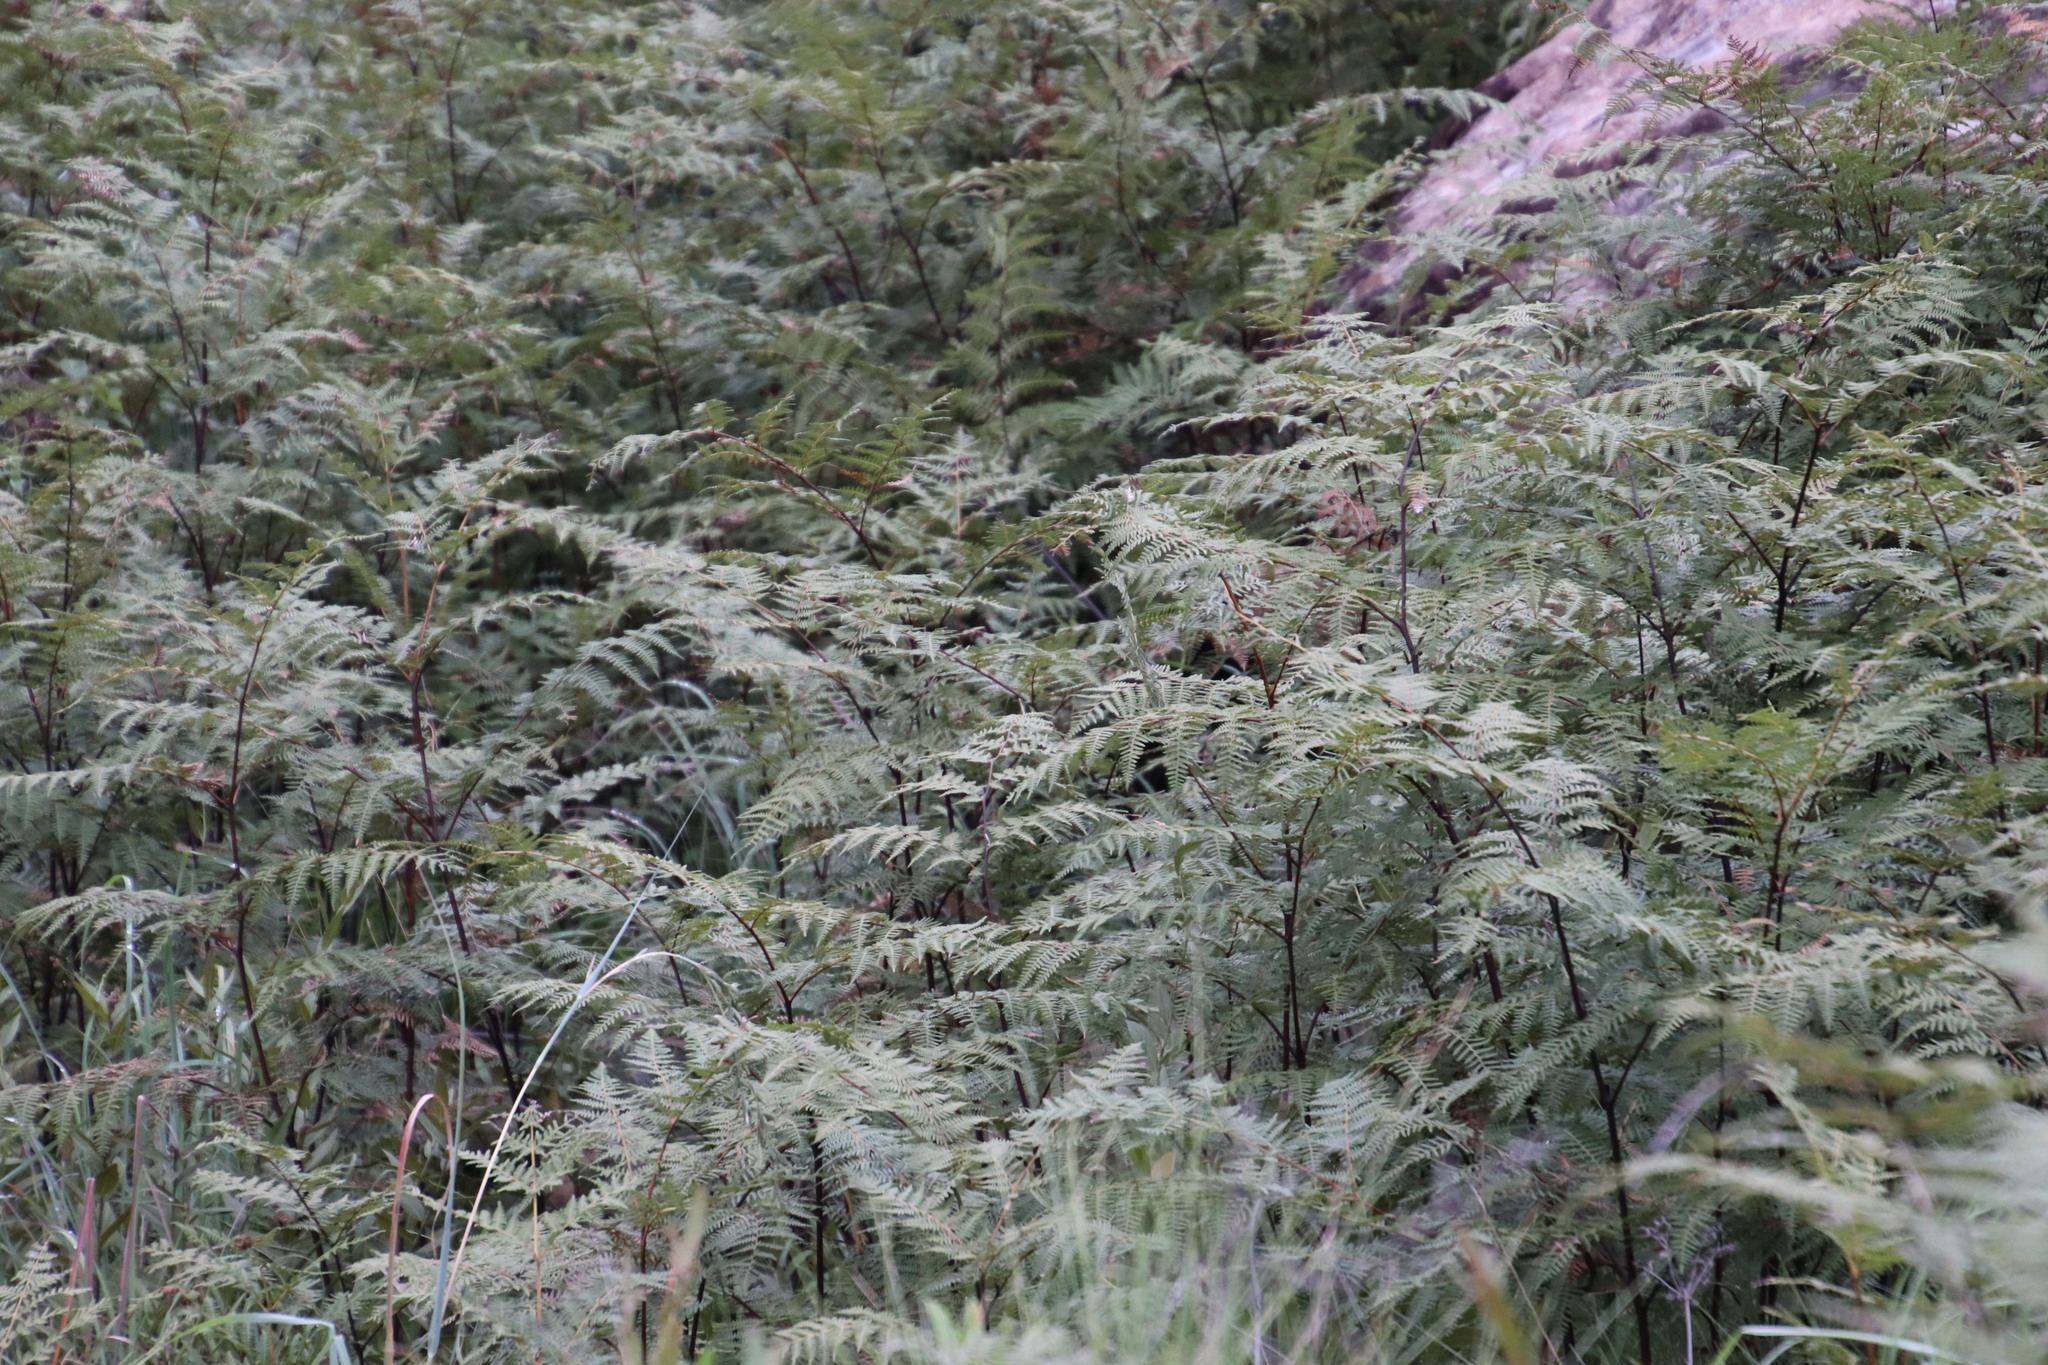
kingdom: Plantae
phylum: Tracheophyta
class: Polypodiopsida
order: Polypodiales
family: Dennstaedtiaceae
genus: Pteridium
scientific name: Pteridium aquilinum
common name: Bracken
